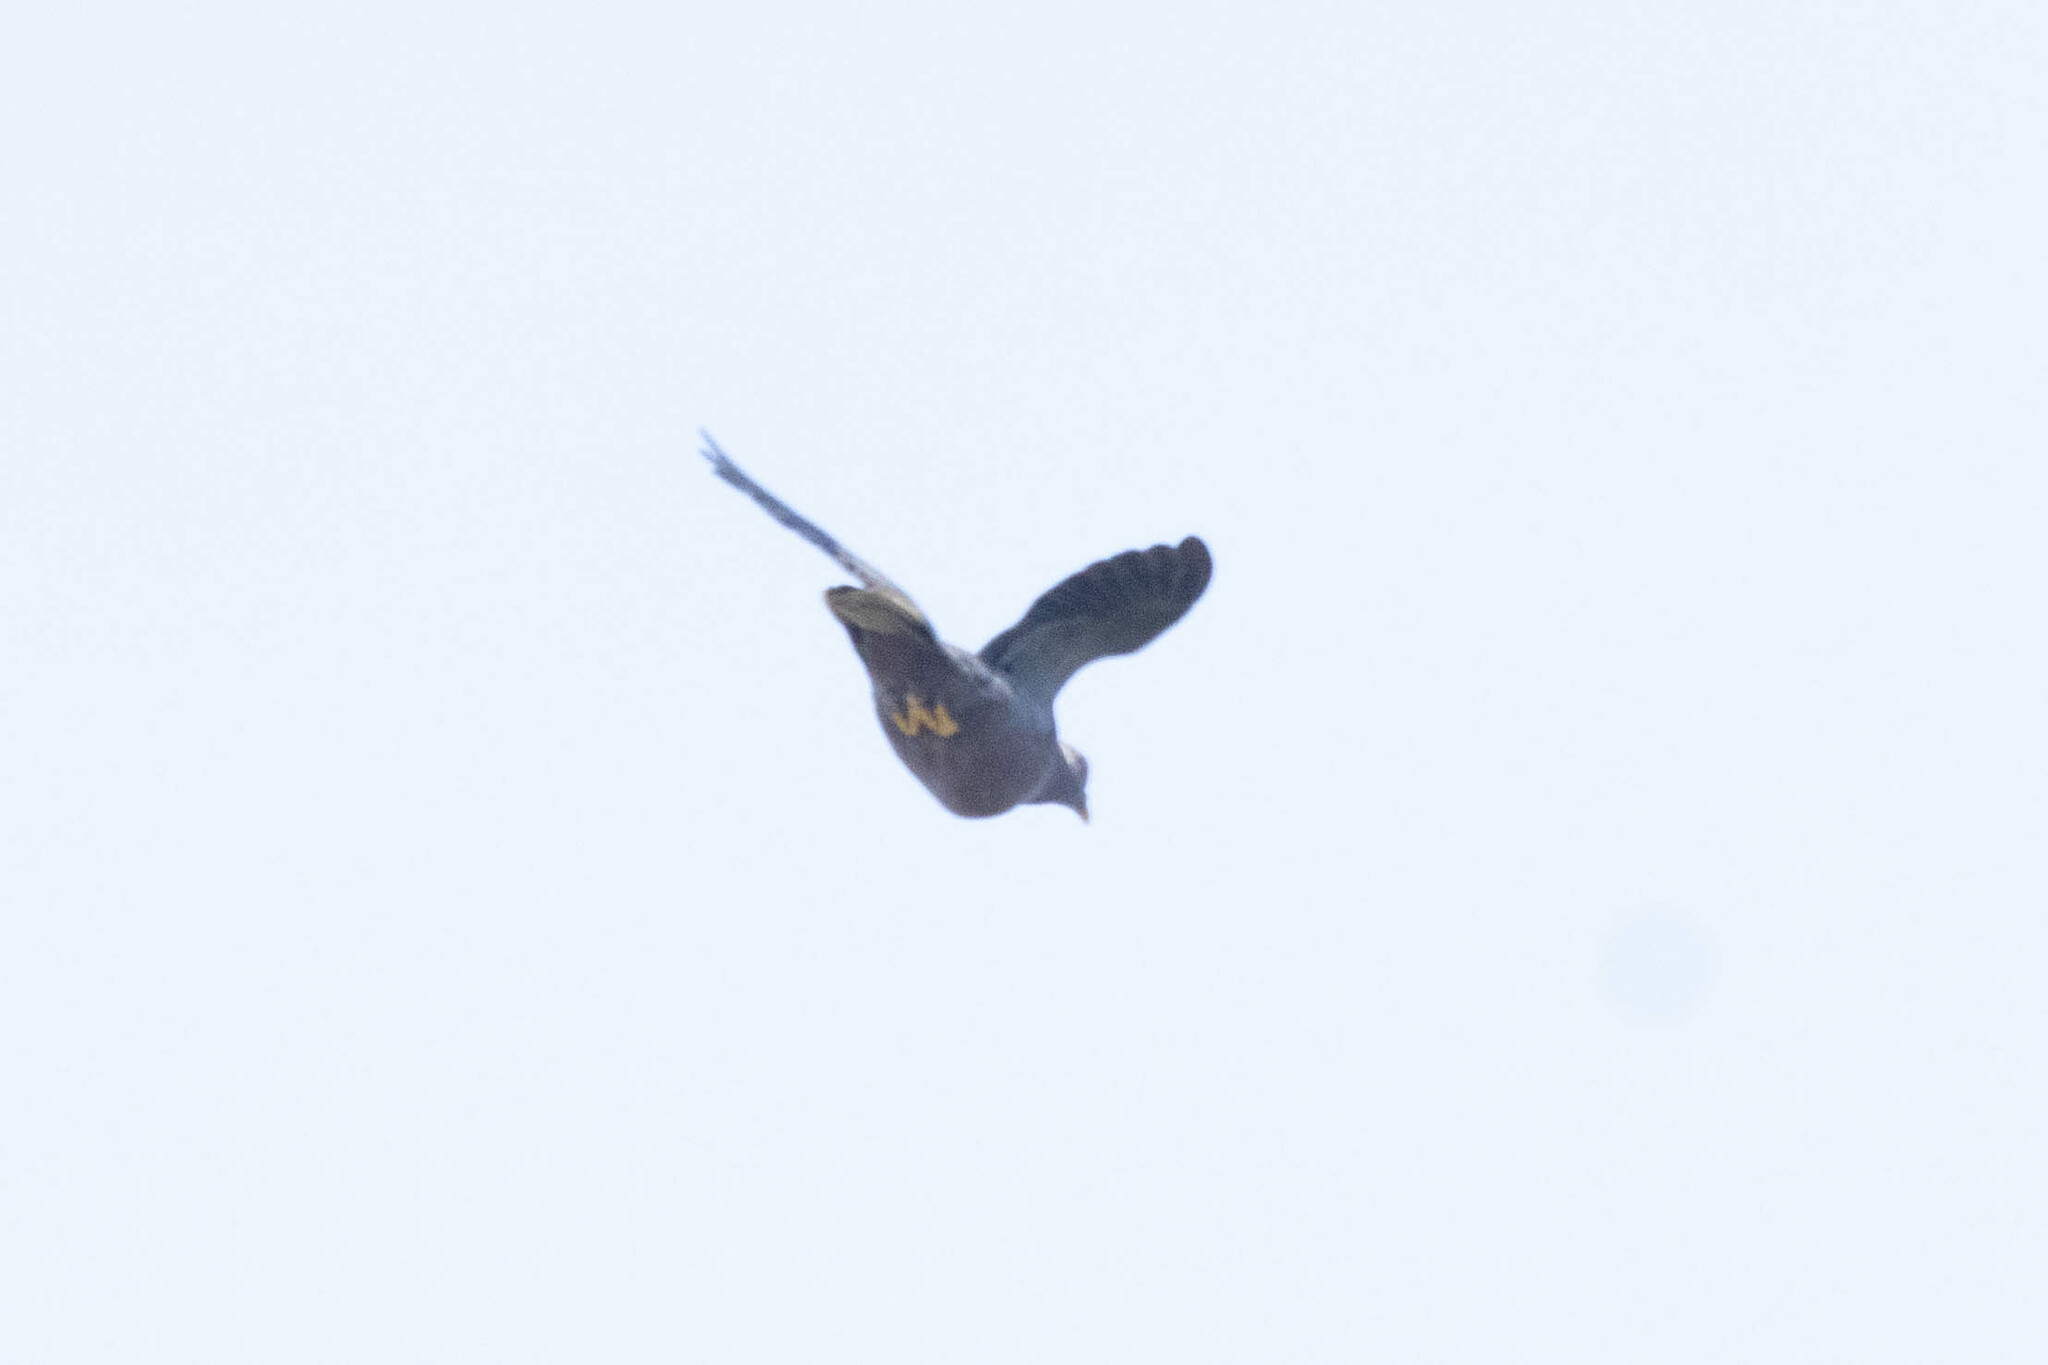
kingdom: Animalia
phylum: Chordata
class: Aves
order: Columbiformes
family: Columbidae
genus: Patagioenas
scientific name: Patagioenas fasciata
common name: Band-tailed pigeon
